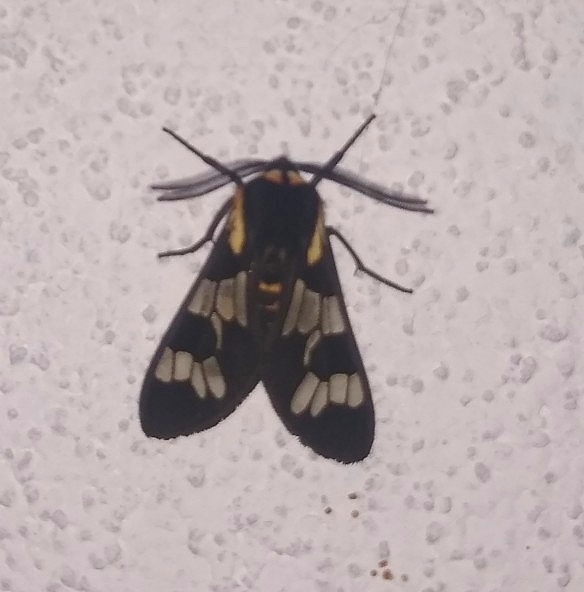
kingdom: Animalia
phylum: Arthropoda
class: Insecta
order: Lepidoptera
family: Erebidae
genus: Eurata
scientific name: Eurata
